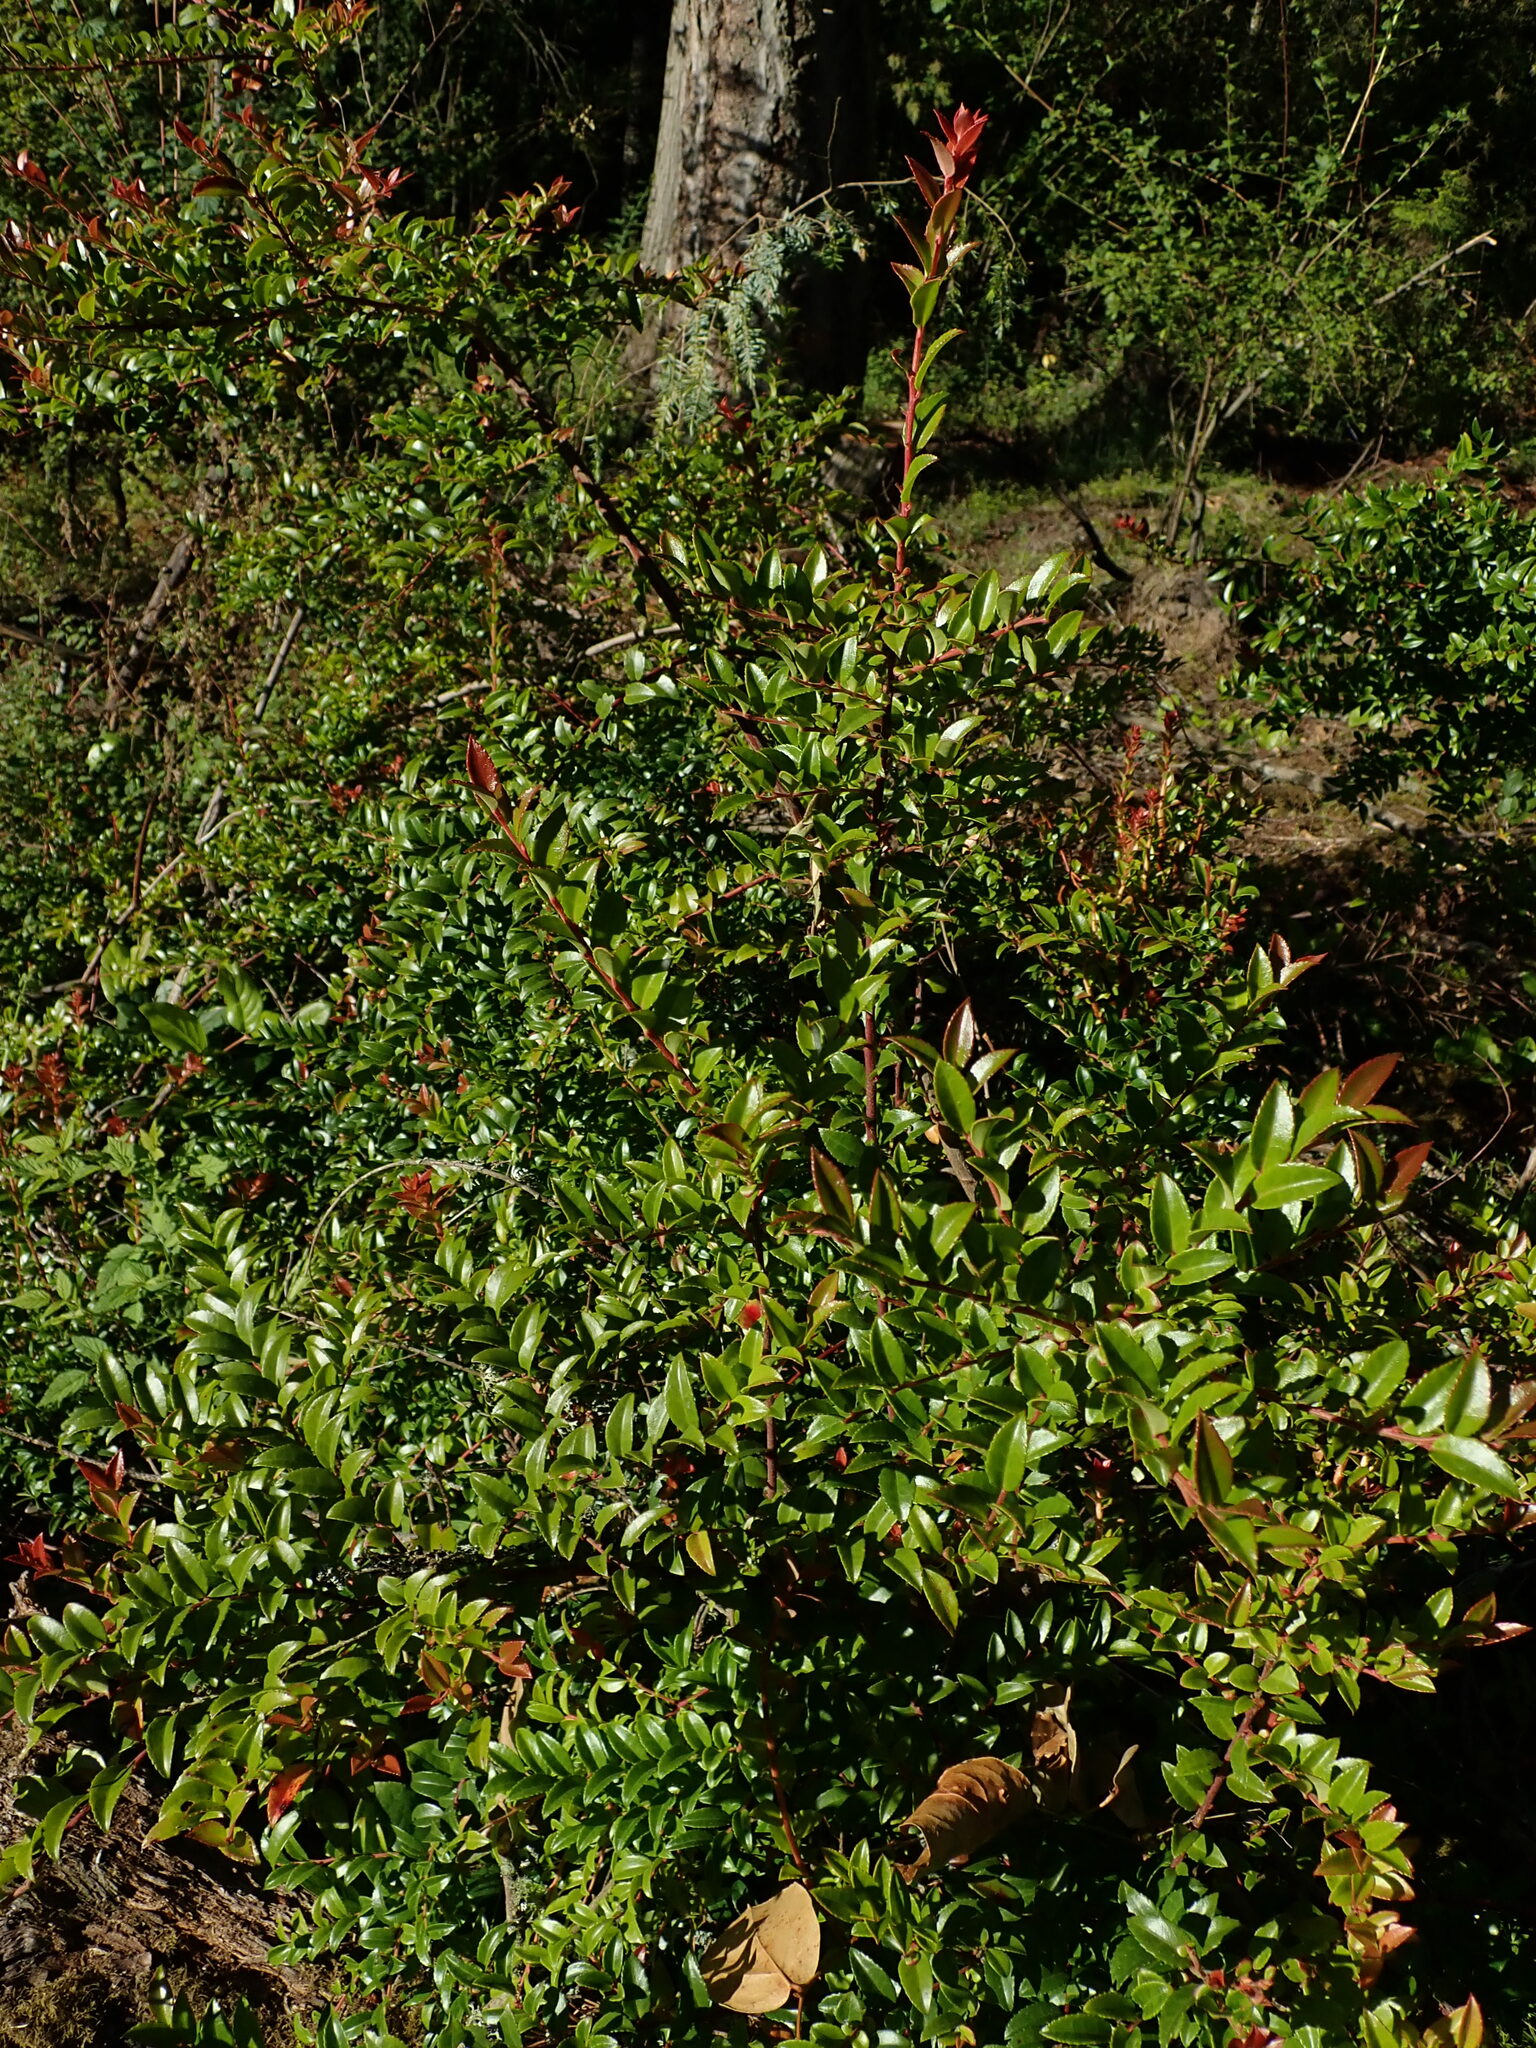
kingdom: Plantae
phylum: Tracheophyta
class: Magnoliopsida
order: Ericales
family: Ericaceae
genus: Vaccinium
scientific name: Vaccinium ovatum
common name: California-huckleberry
